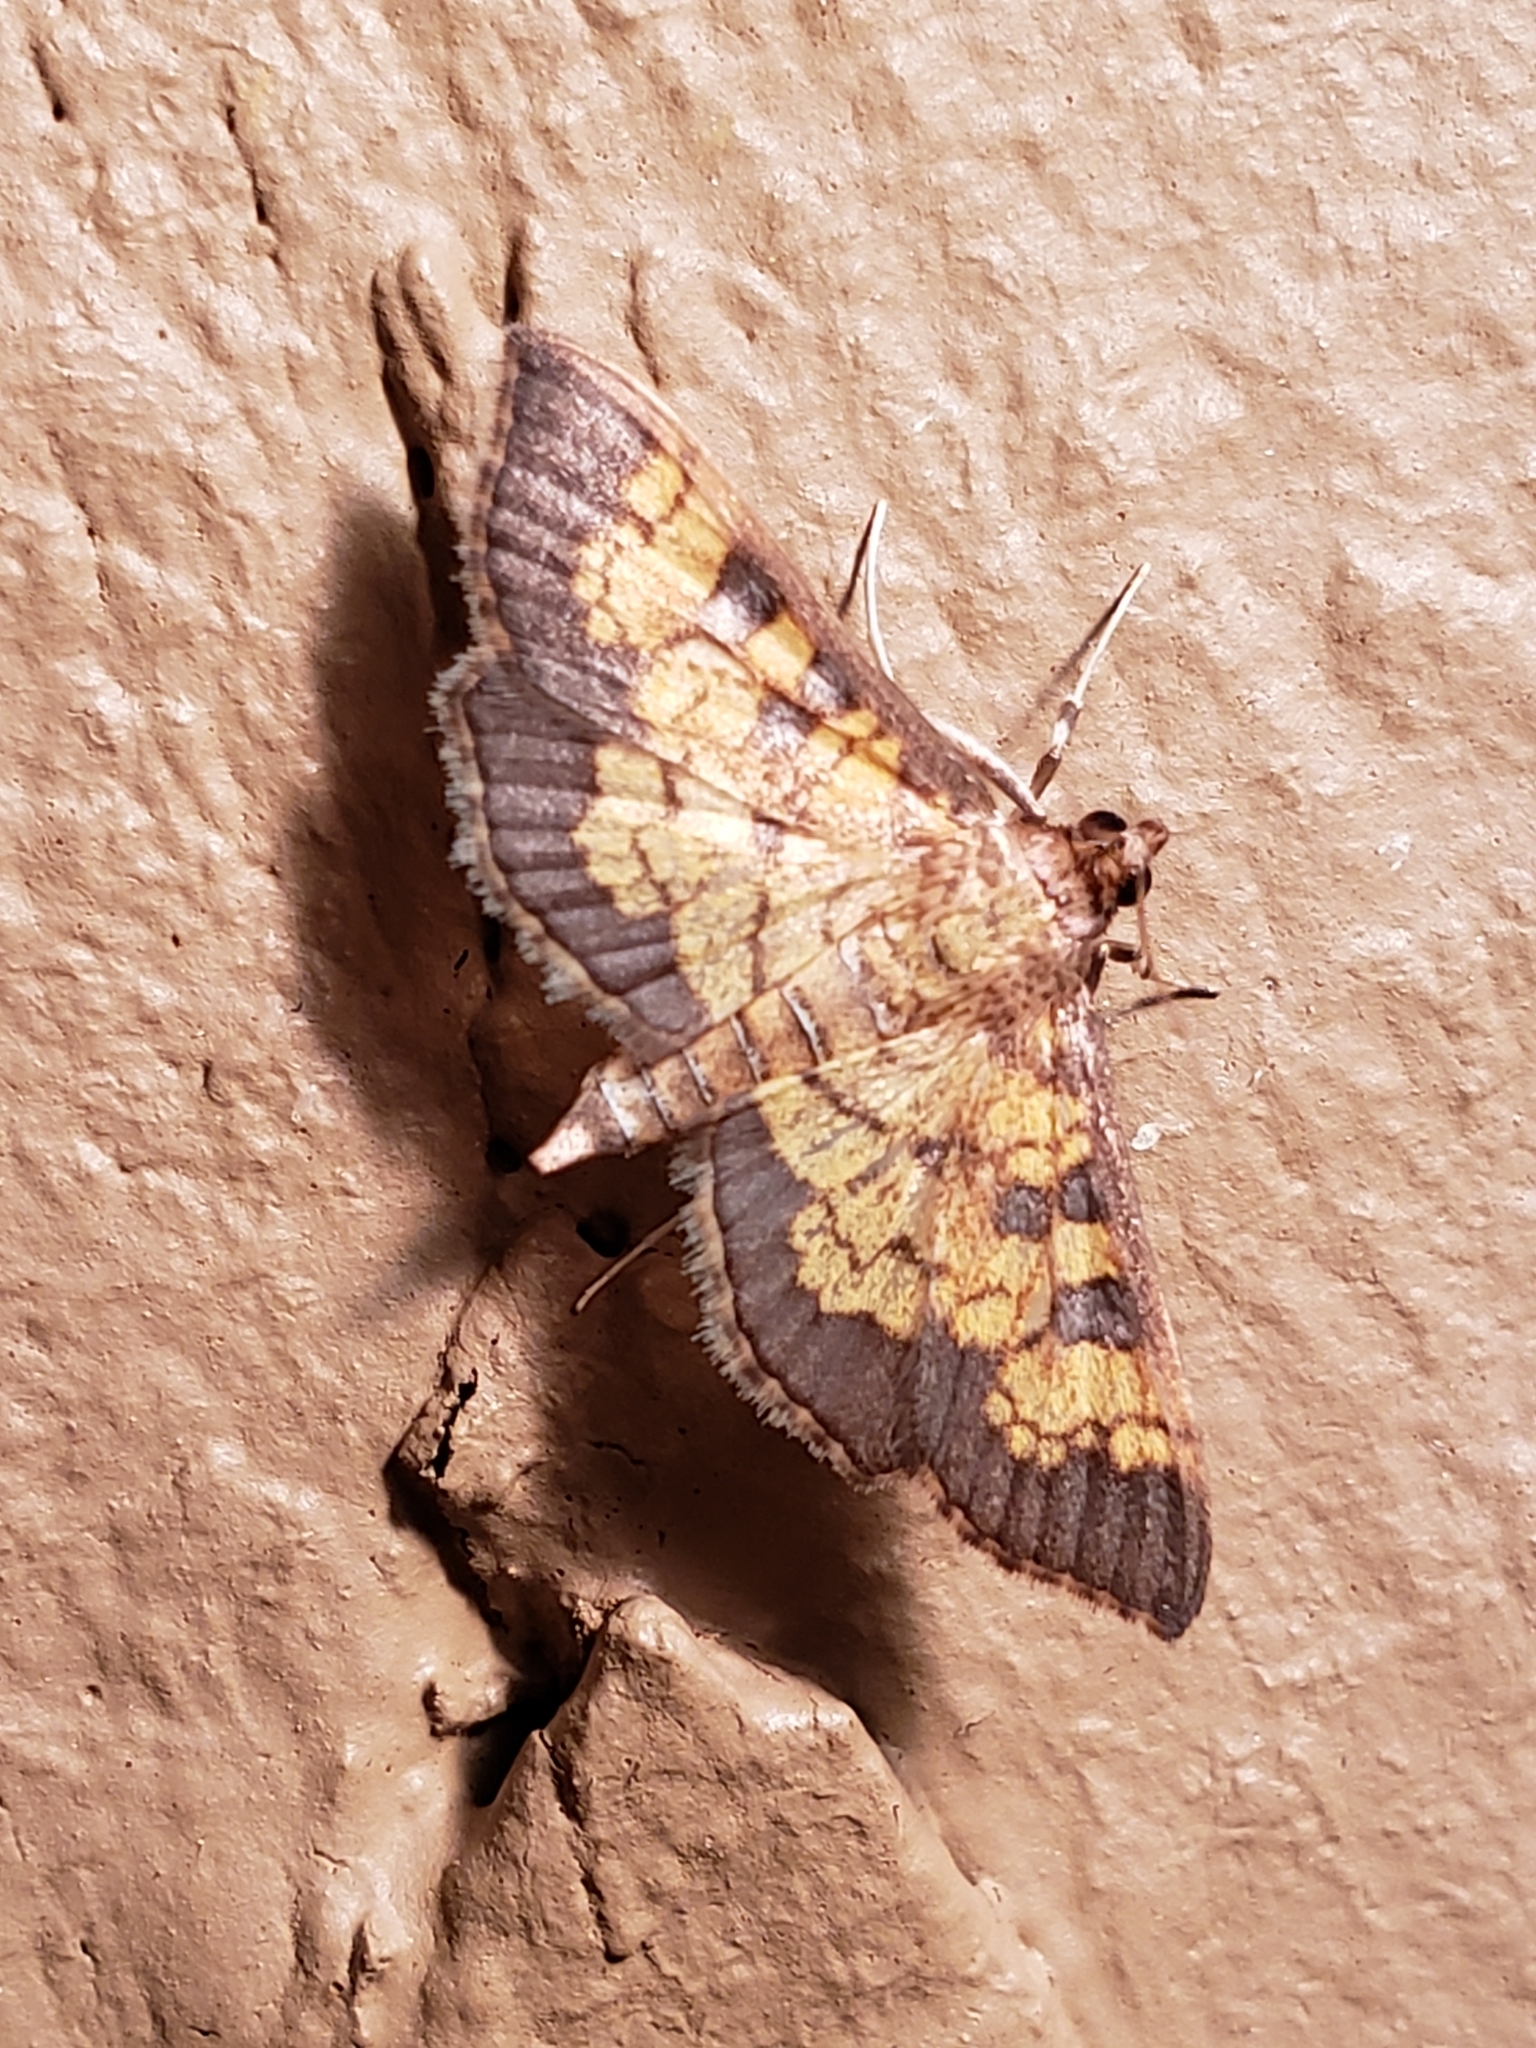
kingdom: Animalia
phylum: Arthropoda
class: Insecta
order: Lepidoptera
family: Crambidae
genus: Epipagis
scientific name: Epipagis adipaloides
